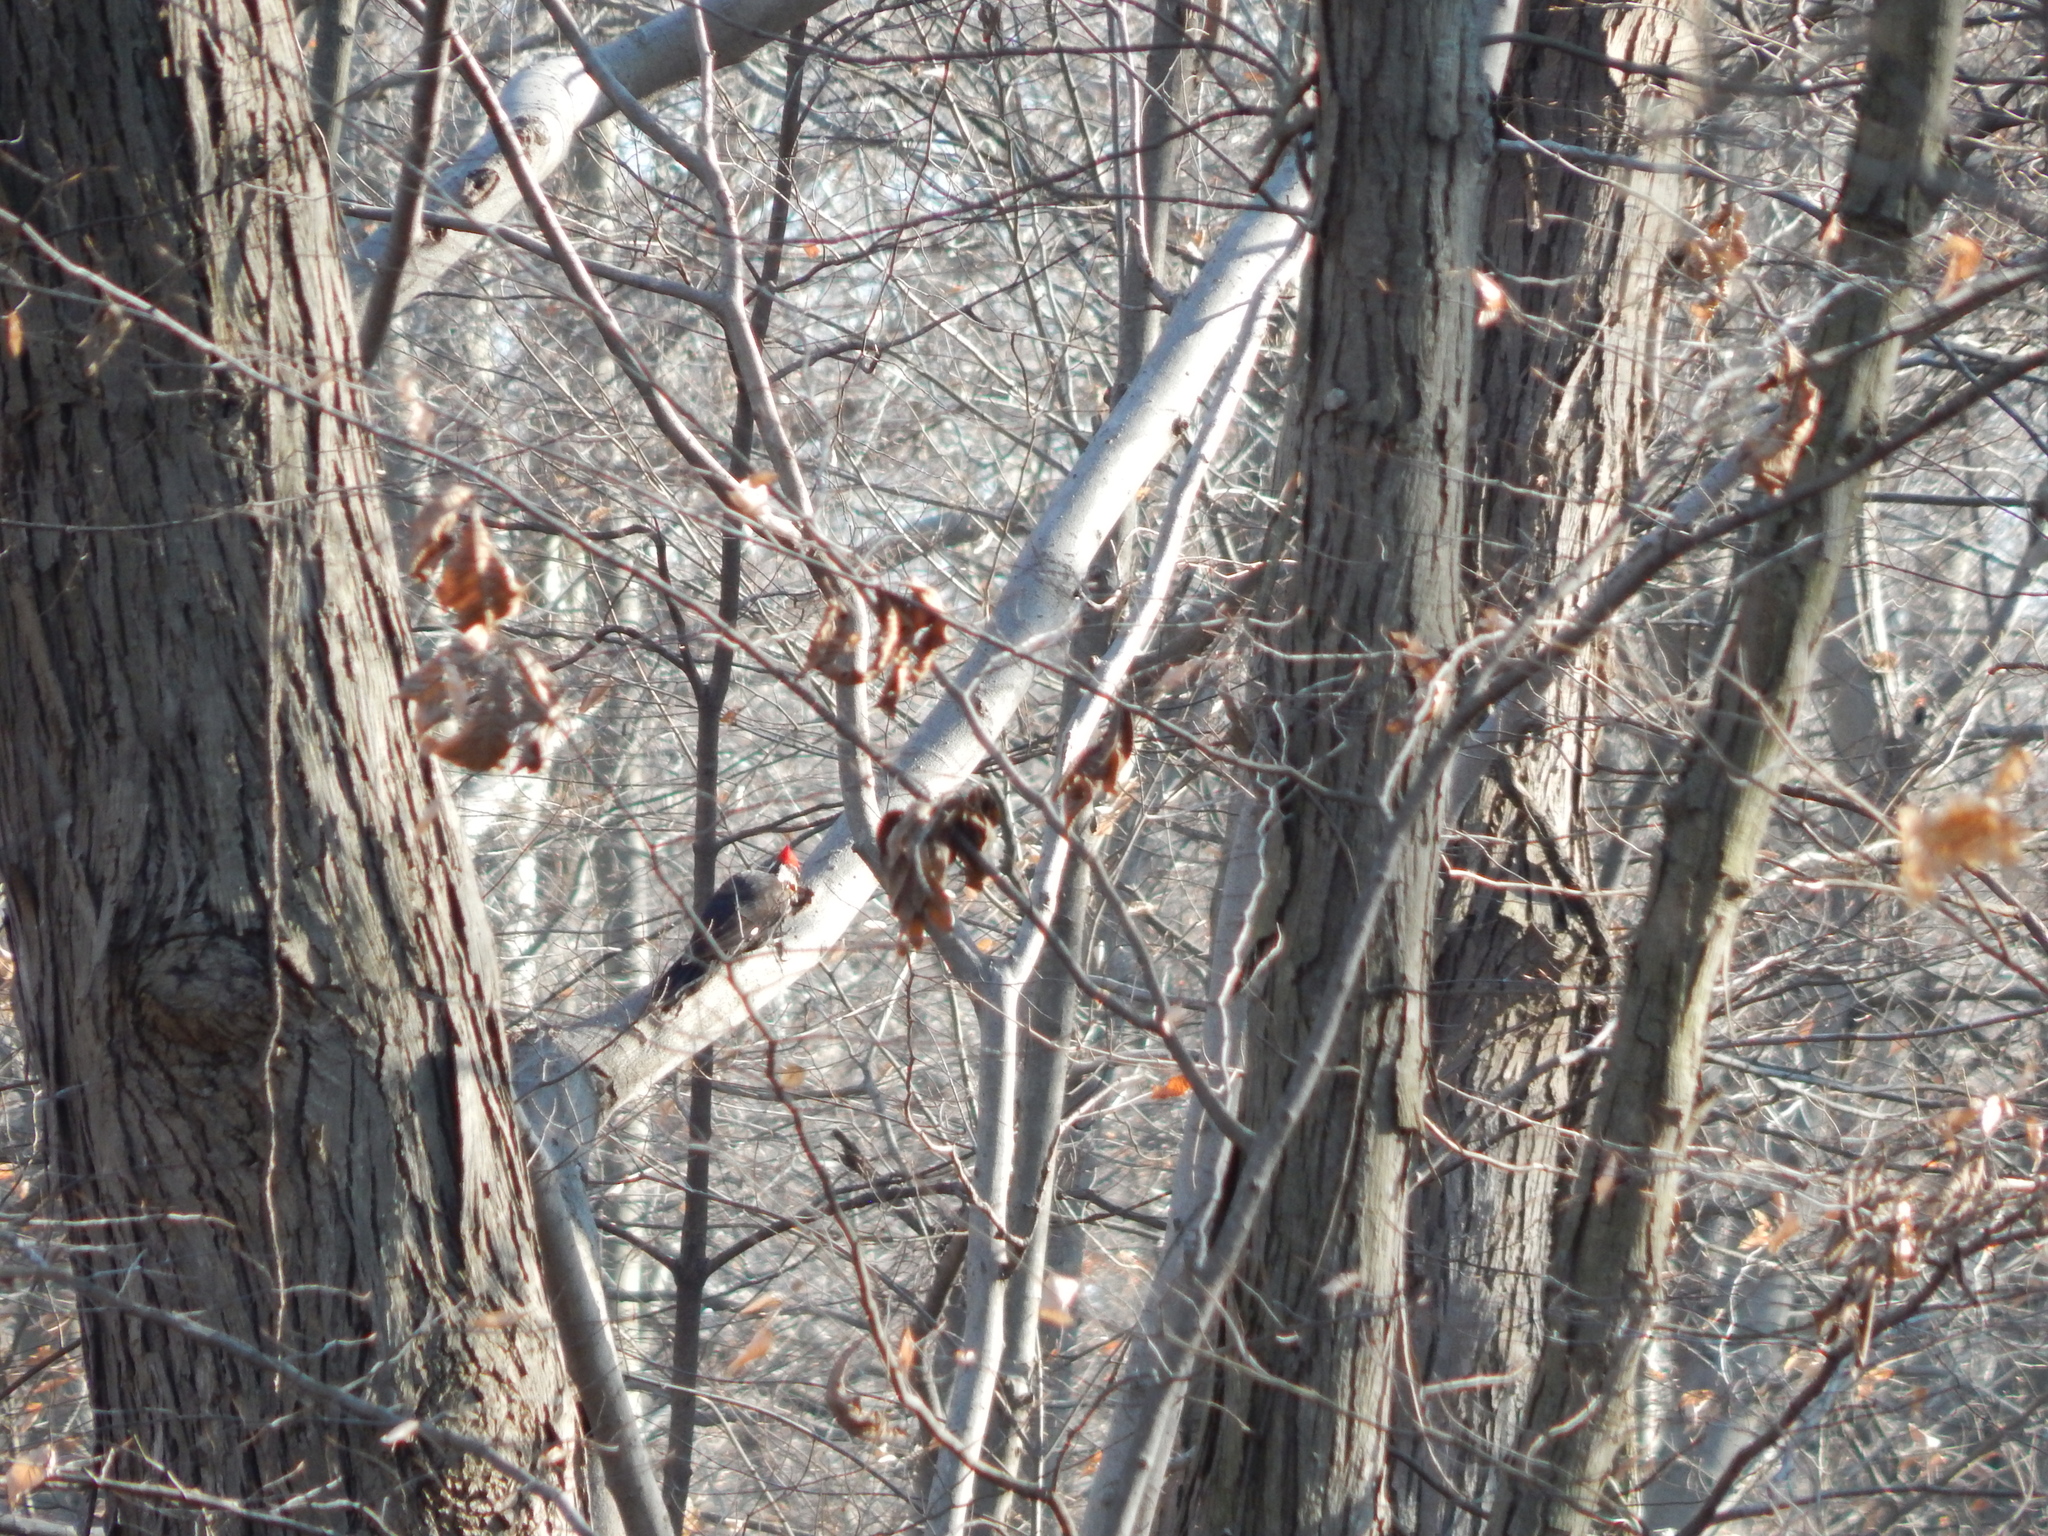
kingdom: Animalia
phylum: Chordata
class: Aves
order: Piciformes
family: Picidae
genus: Dryocopus
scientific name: Dryocopus pileatus
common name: Pileated woodpecker
